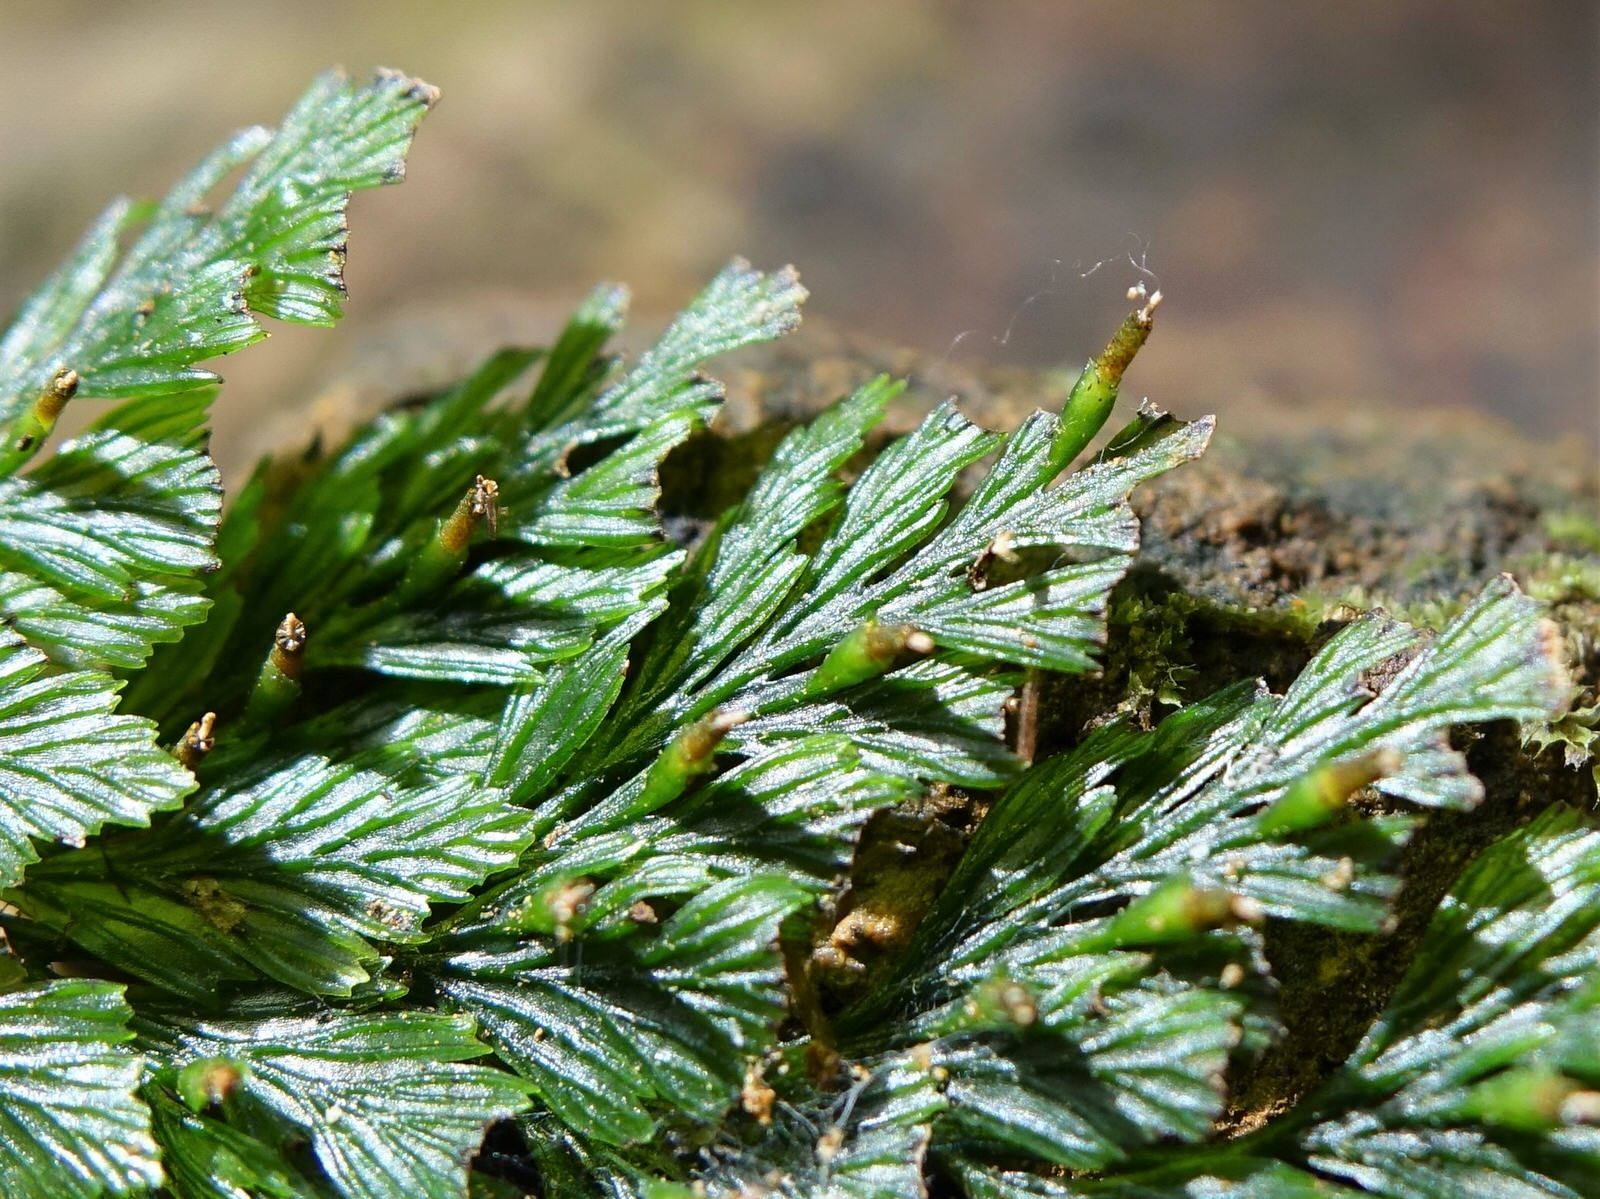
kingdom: Plantae
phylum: Tracheophyta
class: Polypodiopsida
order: Hymenophyllales
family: Hymenophyllaceae
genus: Abrodictyum
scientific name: Abrodictyum elongatum
